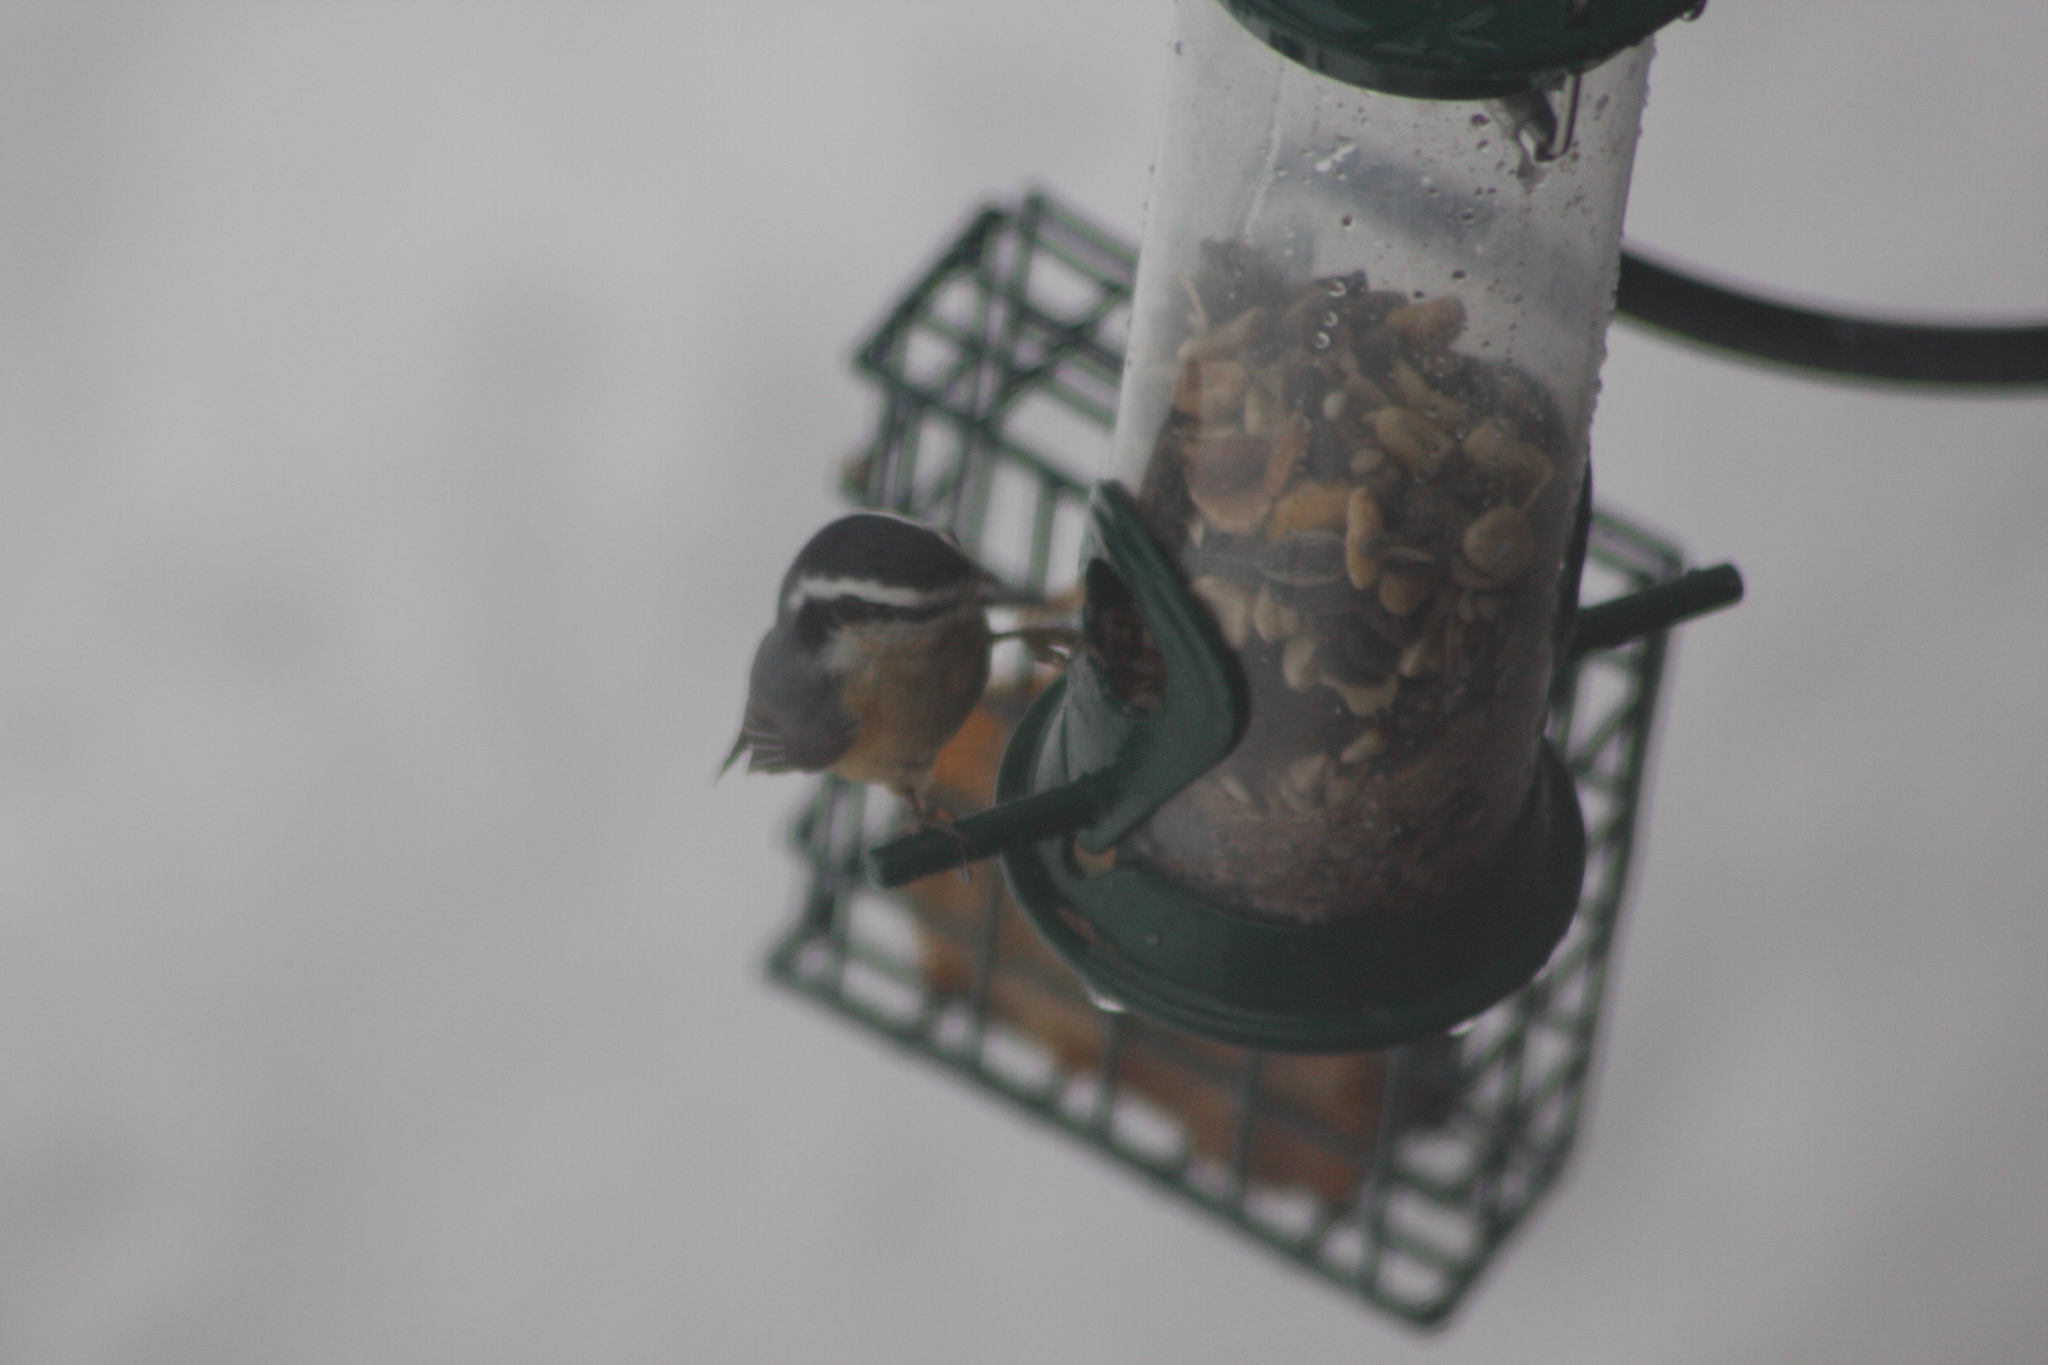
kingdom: Animalia
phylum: Chordata
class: Aves
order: Passeriformes
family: Sittidae
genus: Sitta
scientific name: Sitta canadensis
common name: Red-breasted nuthatch
